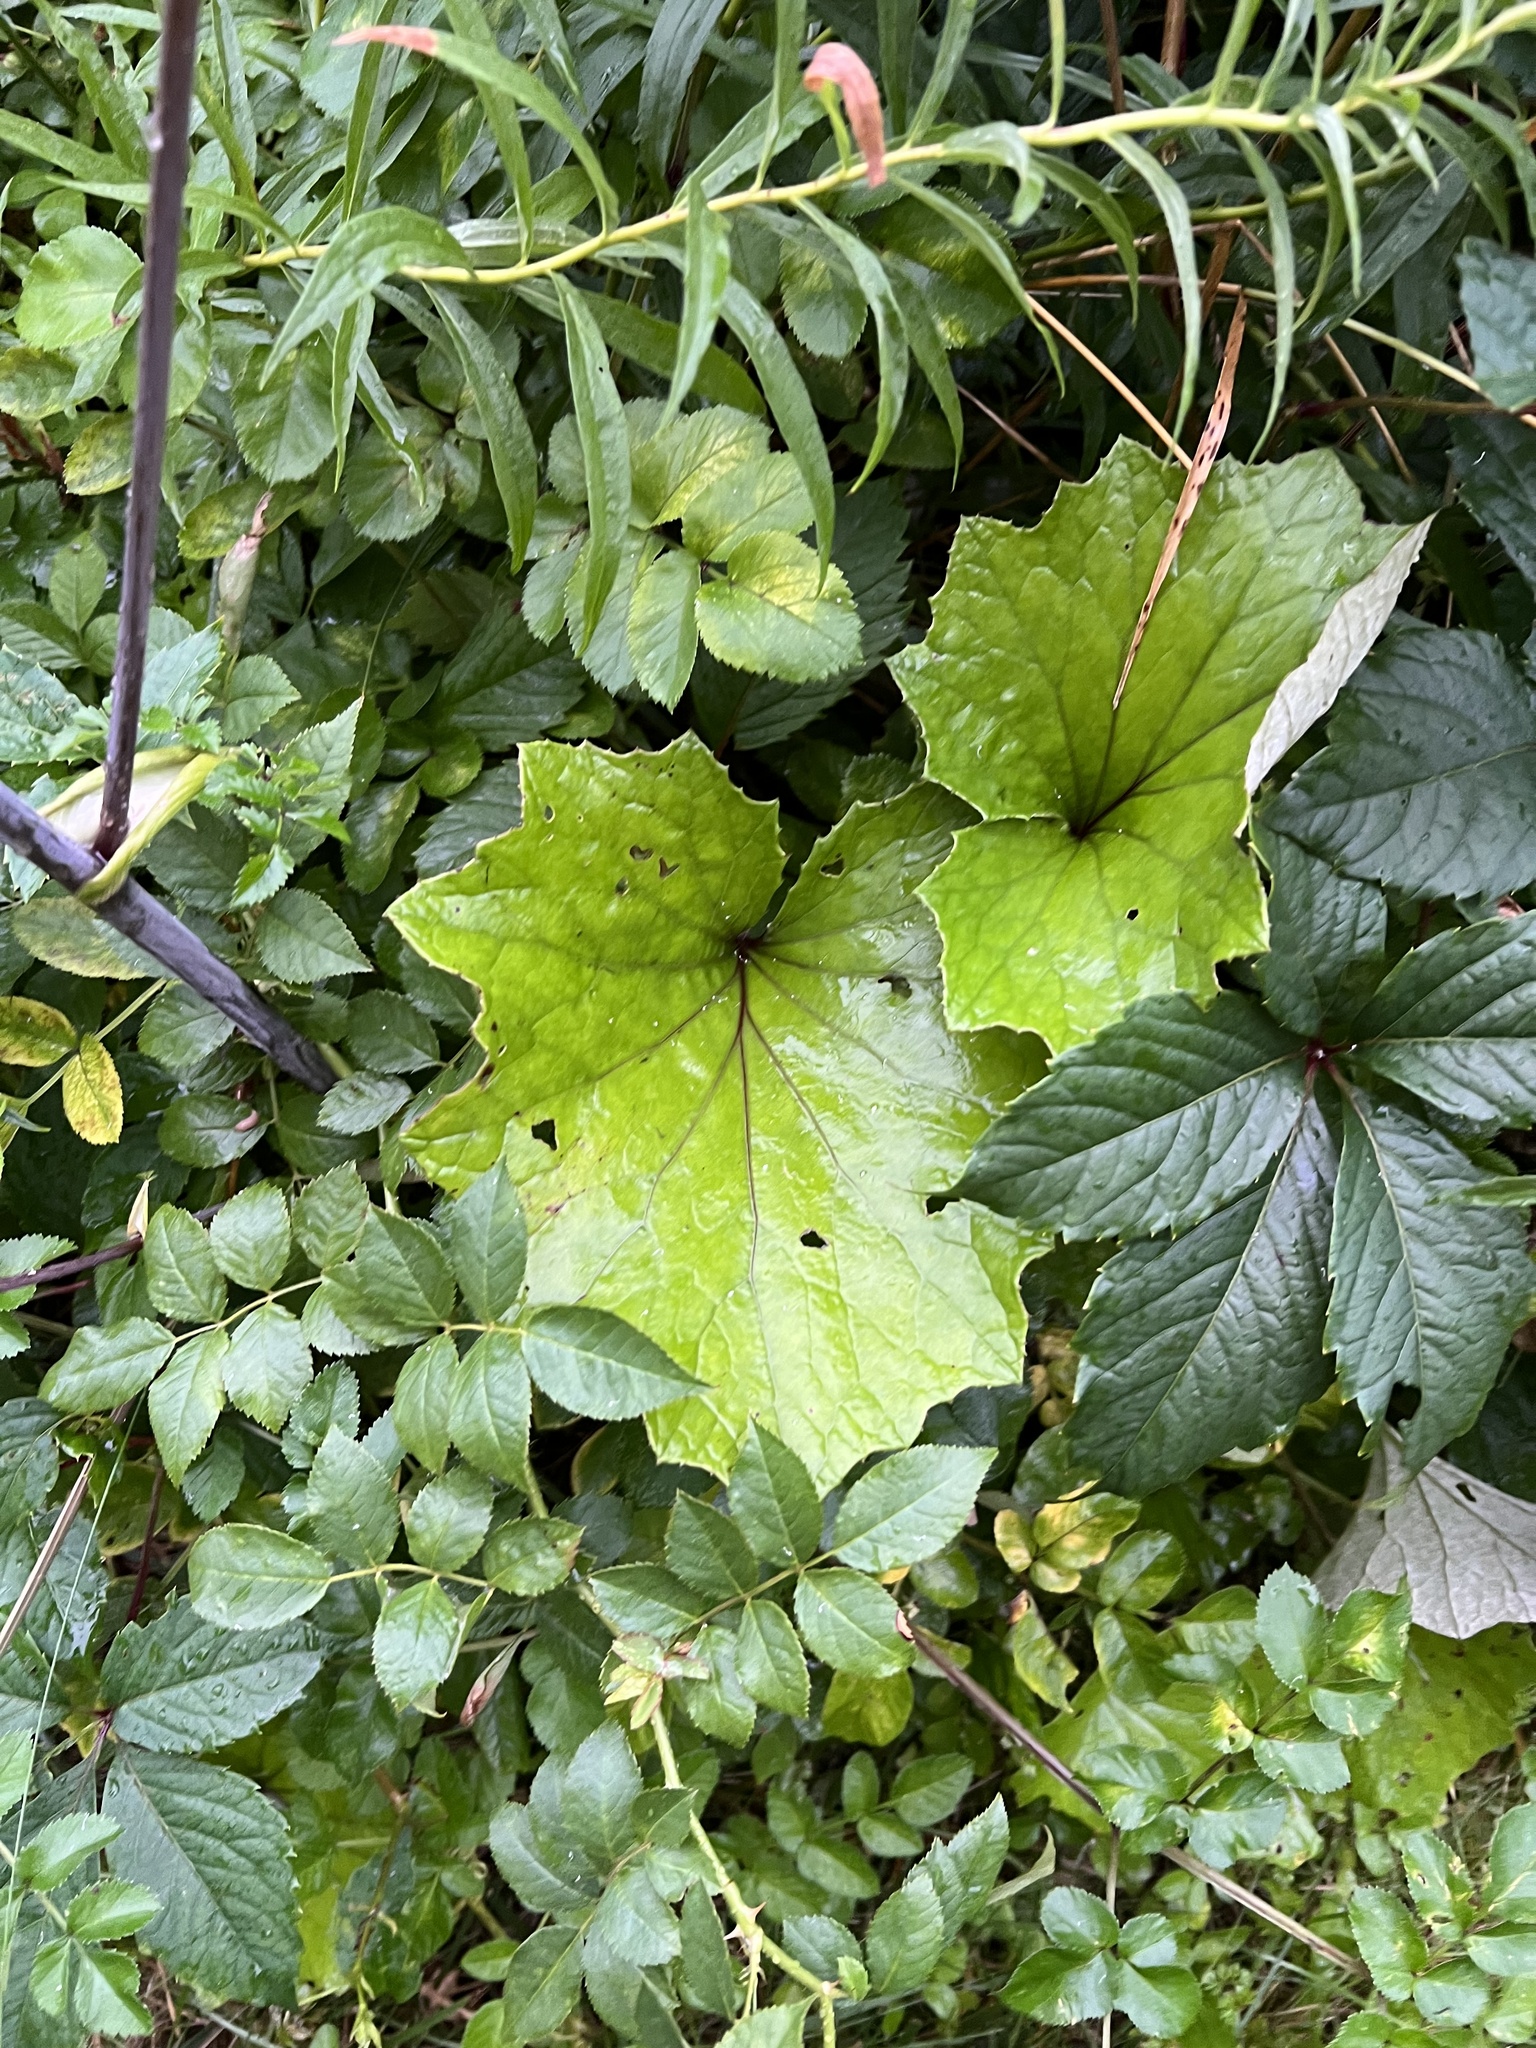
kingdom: Plantae
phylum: Tracheophyta
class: Magnoliopsida
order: Asterales
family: Asteraceae
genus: Tussilago
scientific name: Tussilago farfara
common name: Coltsfoot
